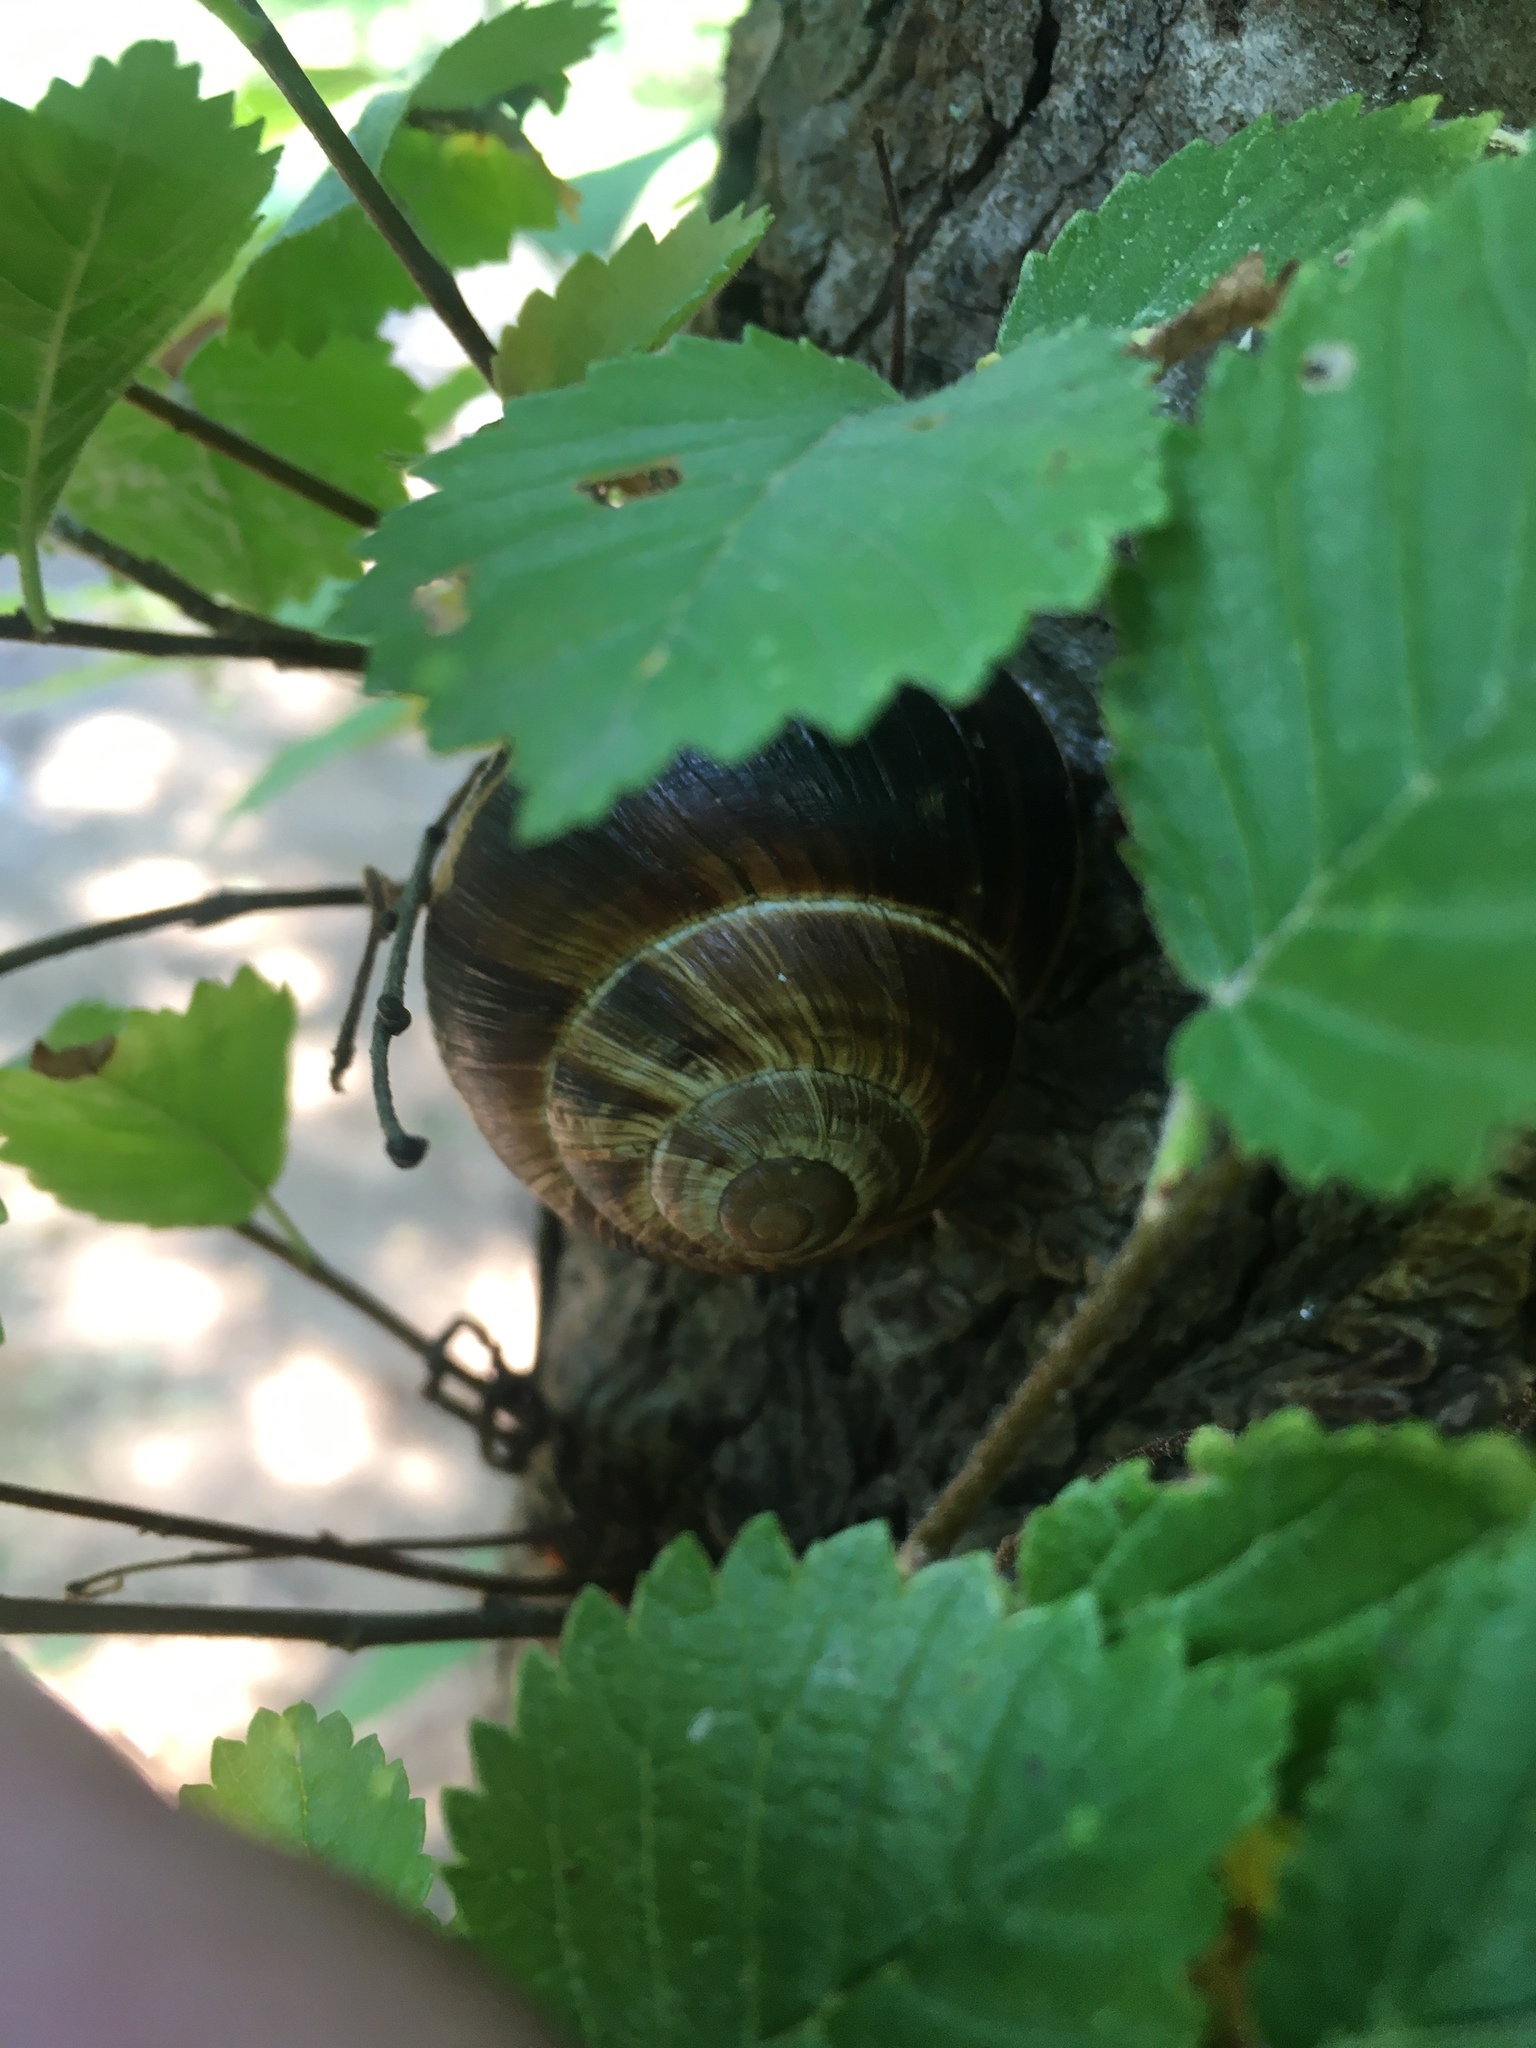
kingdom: Animalia
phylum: Mollusca
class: Gastropoda
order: Stylommatophora
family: Helicidae
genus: Helix
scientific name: Helix lucorum
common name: Turkish snail
